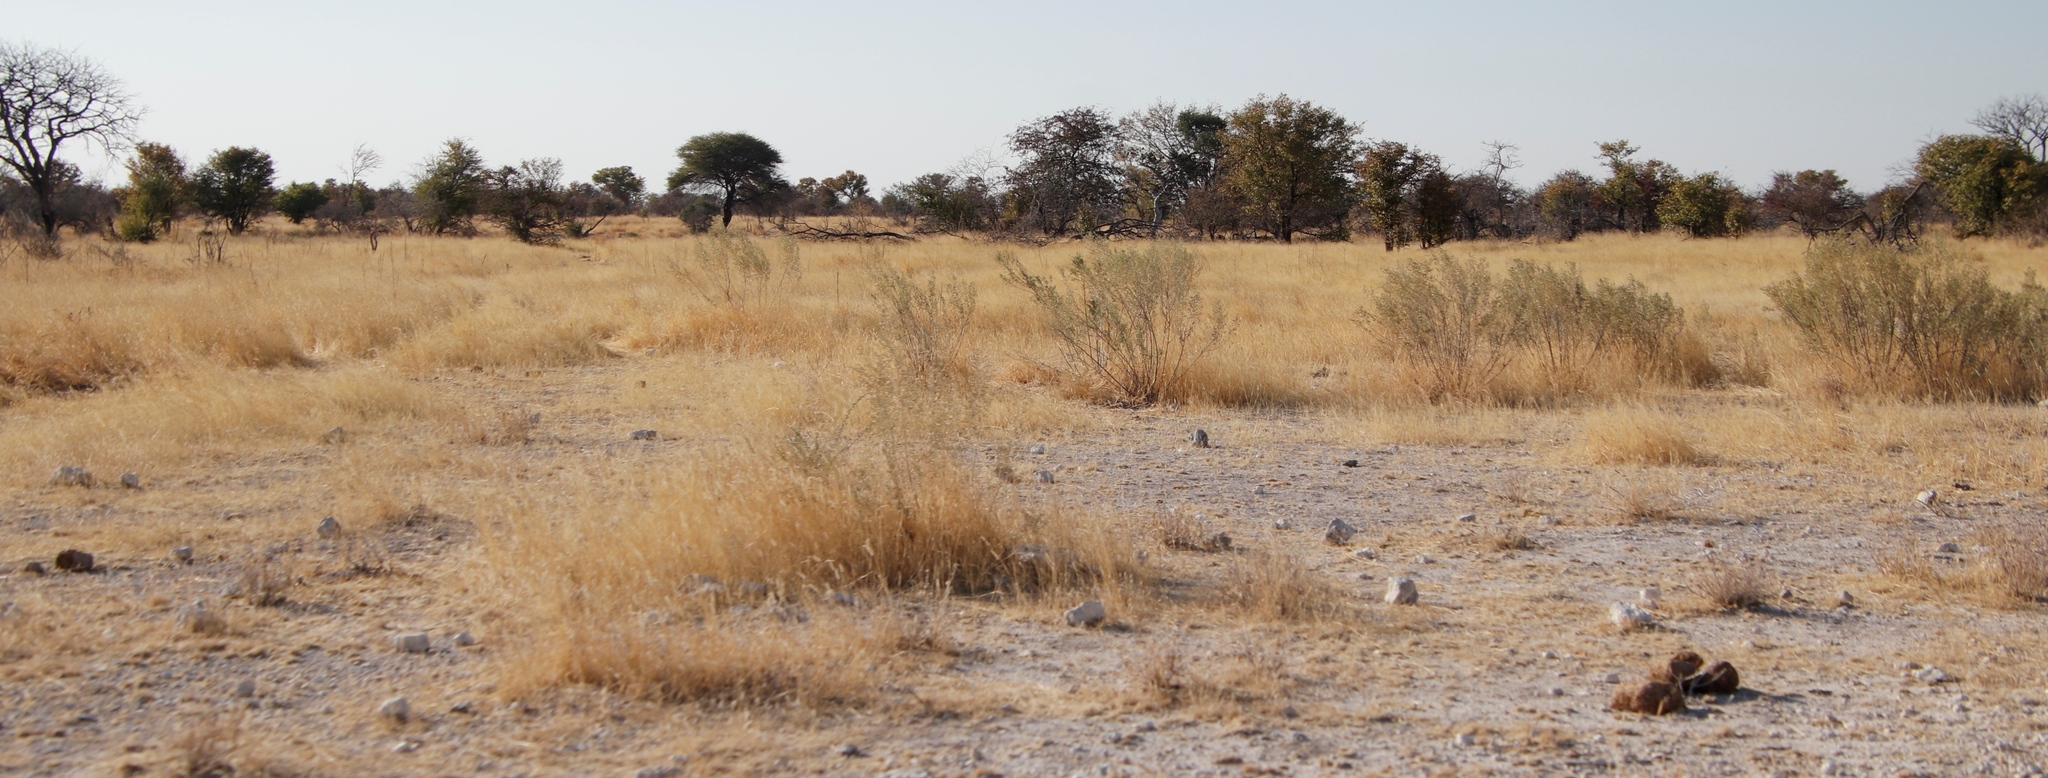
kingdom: Plantae
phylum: Tracheophyta
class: Magnoliopsida
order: Asterales
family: Asteraceae
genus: Pechuel-loeschea
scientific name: Pechuel-loeschea leubnitziae
